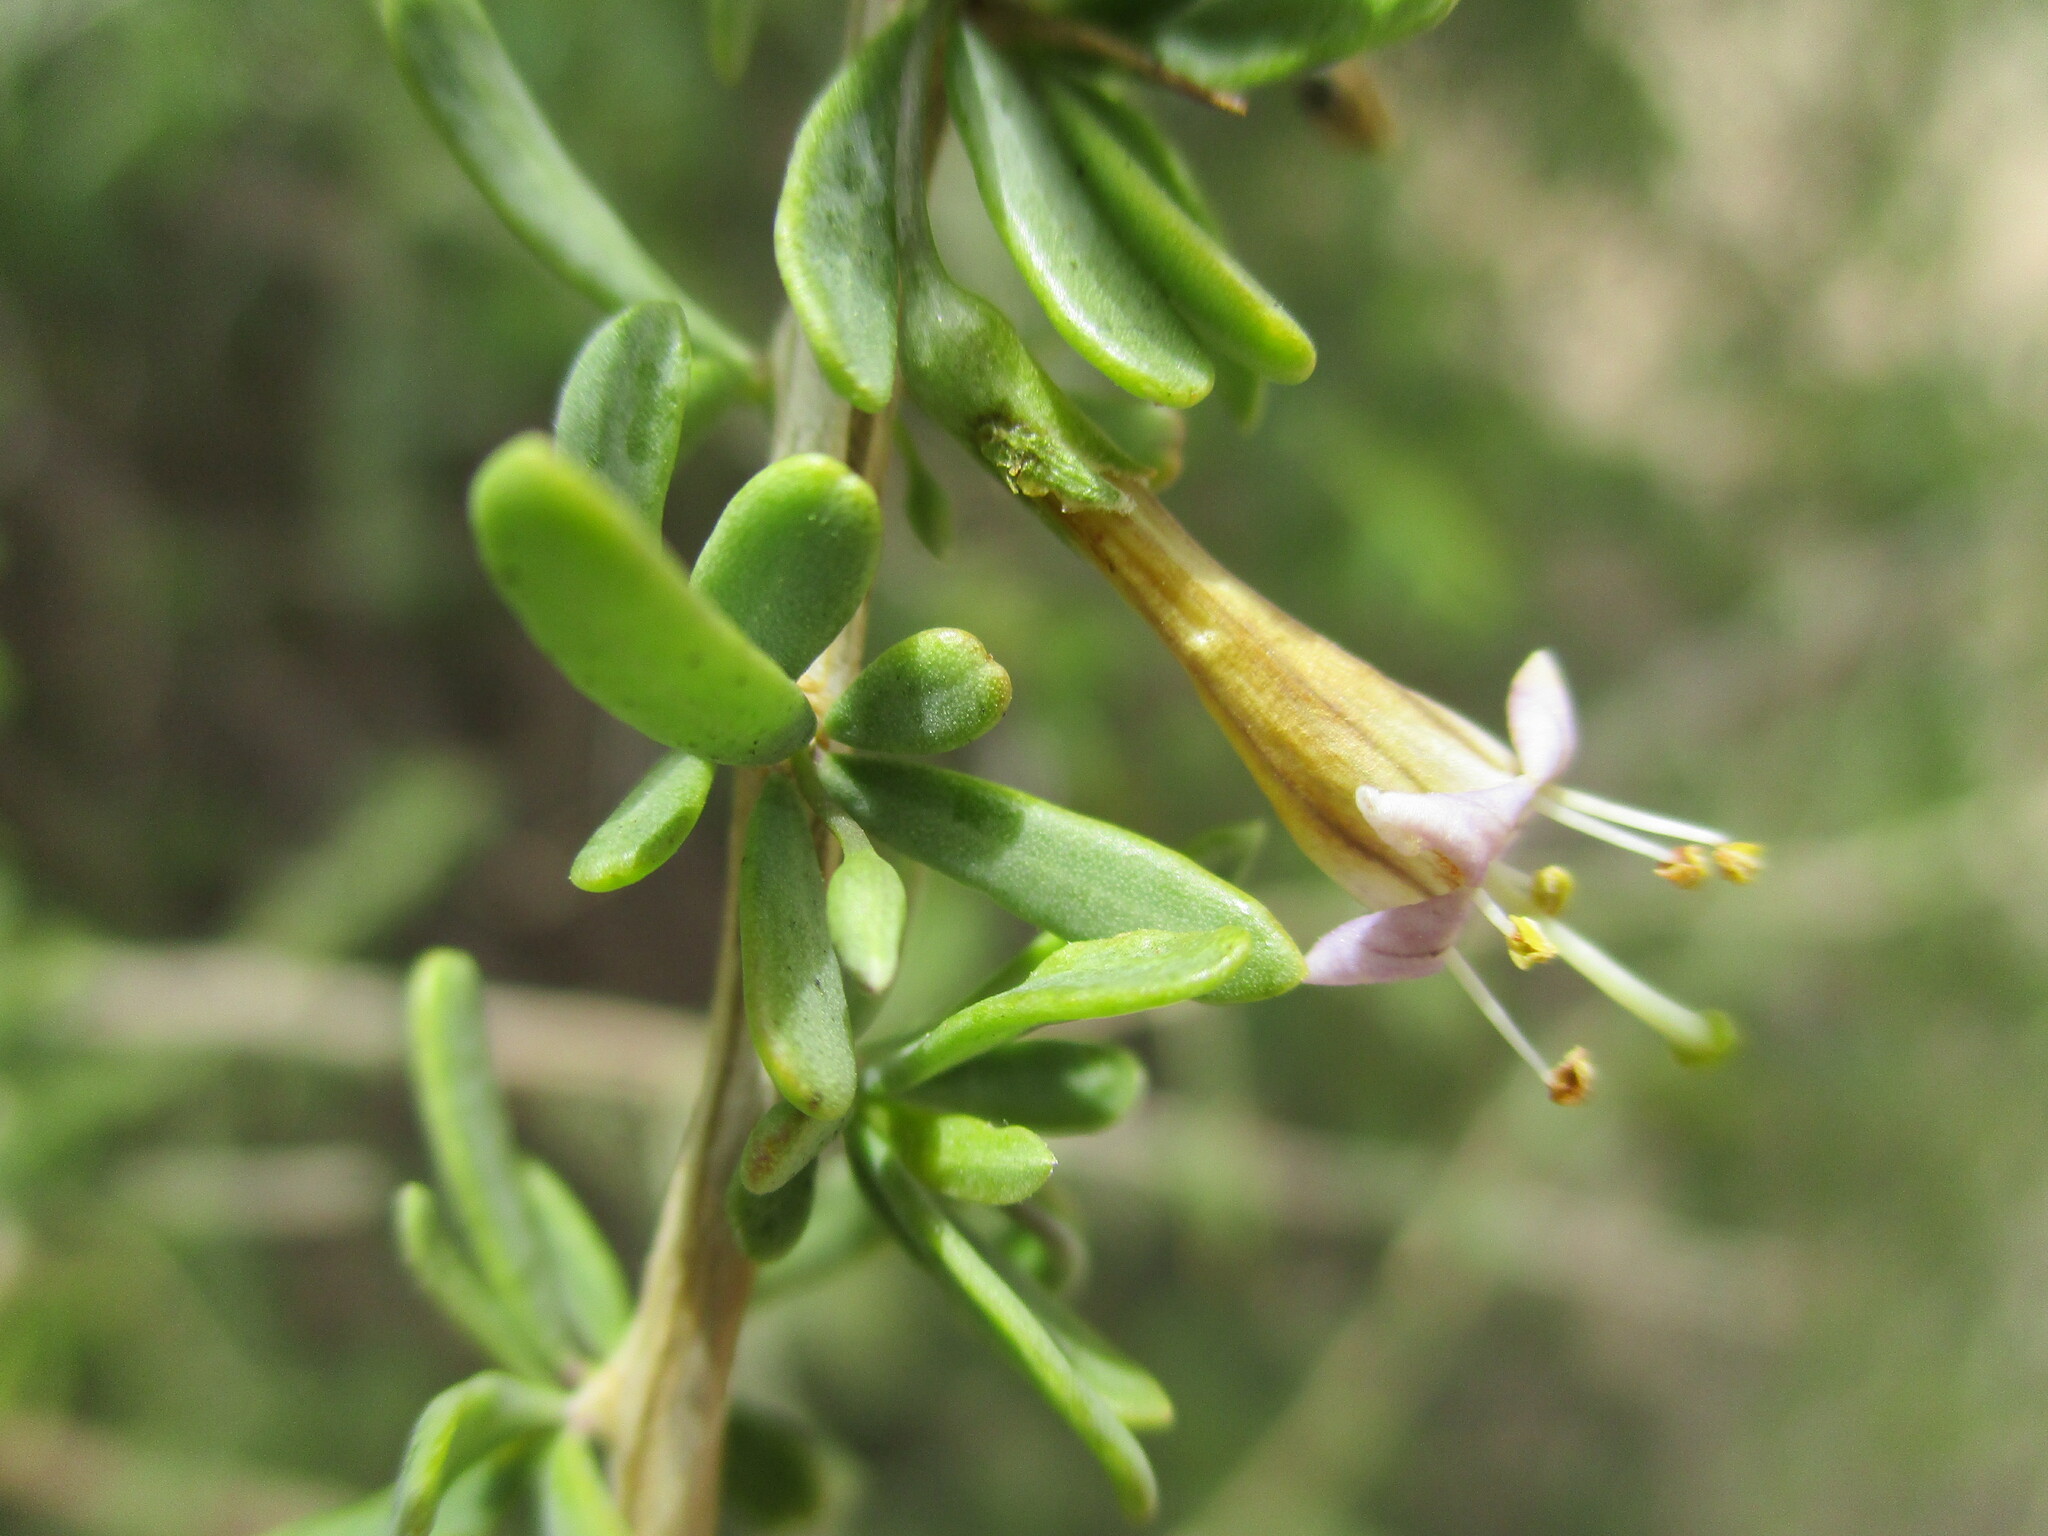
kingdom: Plantae
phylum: Tracheophyta
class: Magnoliopsida
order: Solanales
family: Solanaceae
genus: Lycium
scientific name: Lycium bosciifolium
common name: Limpopo honey-thorn
